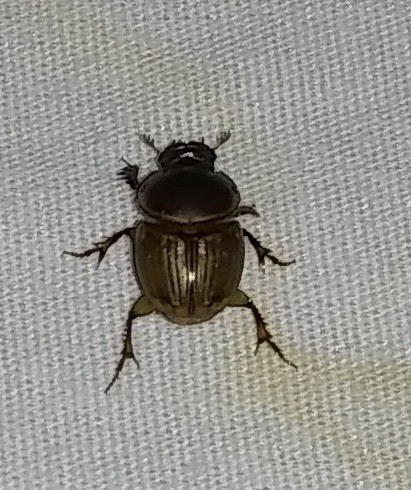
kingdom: Animalia
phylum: Arthropoda
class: Insecta
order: Coleoptera
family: Scarabaeidae
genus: Digitonthophagus
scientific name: Digitonthophagus gazella
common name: Brown dung beetle
